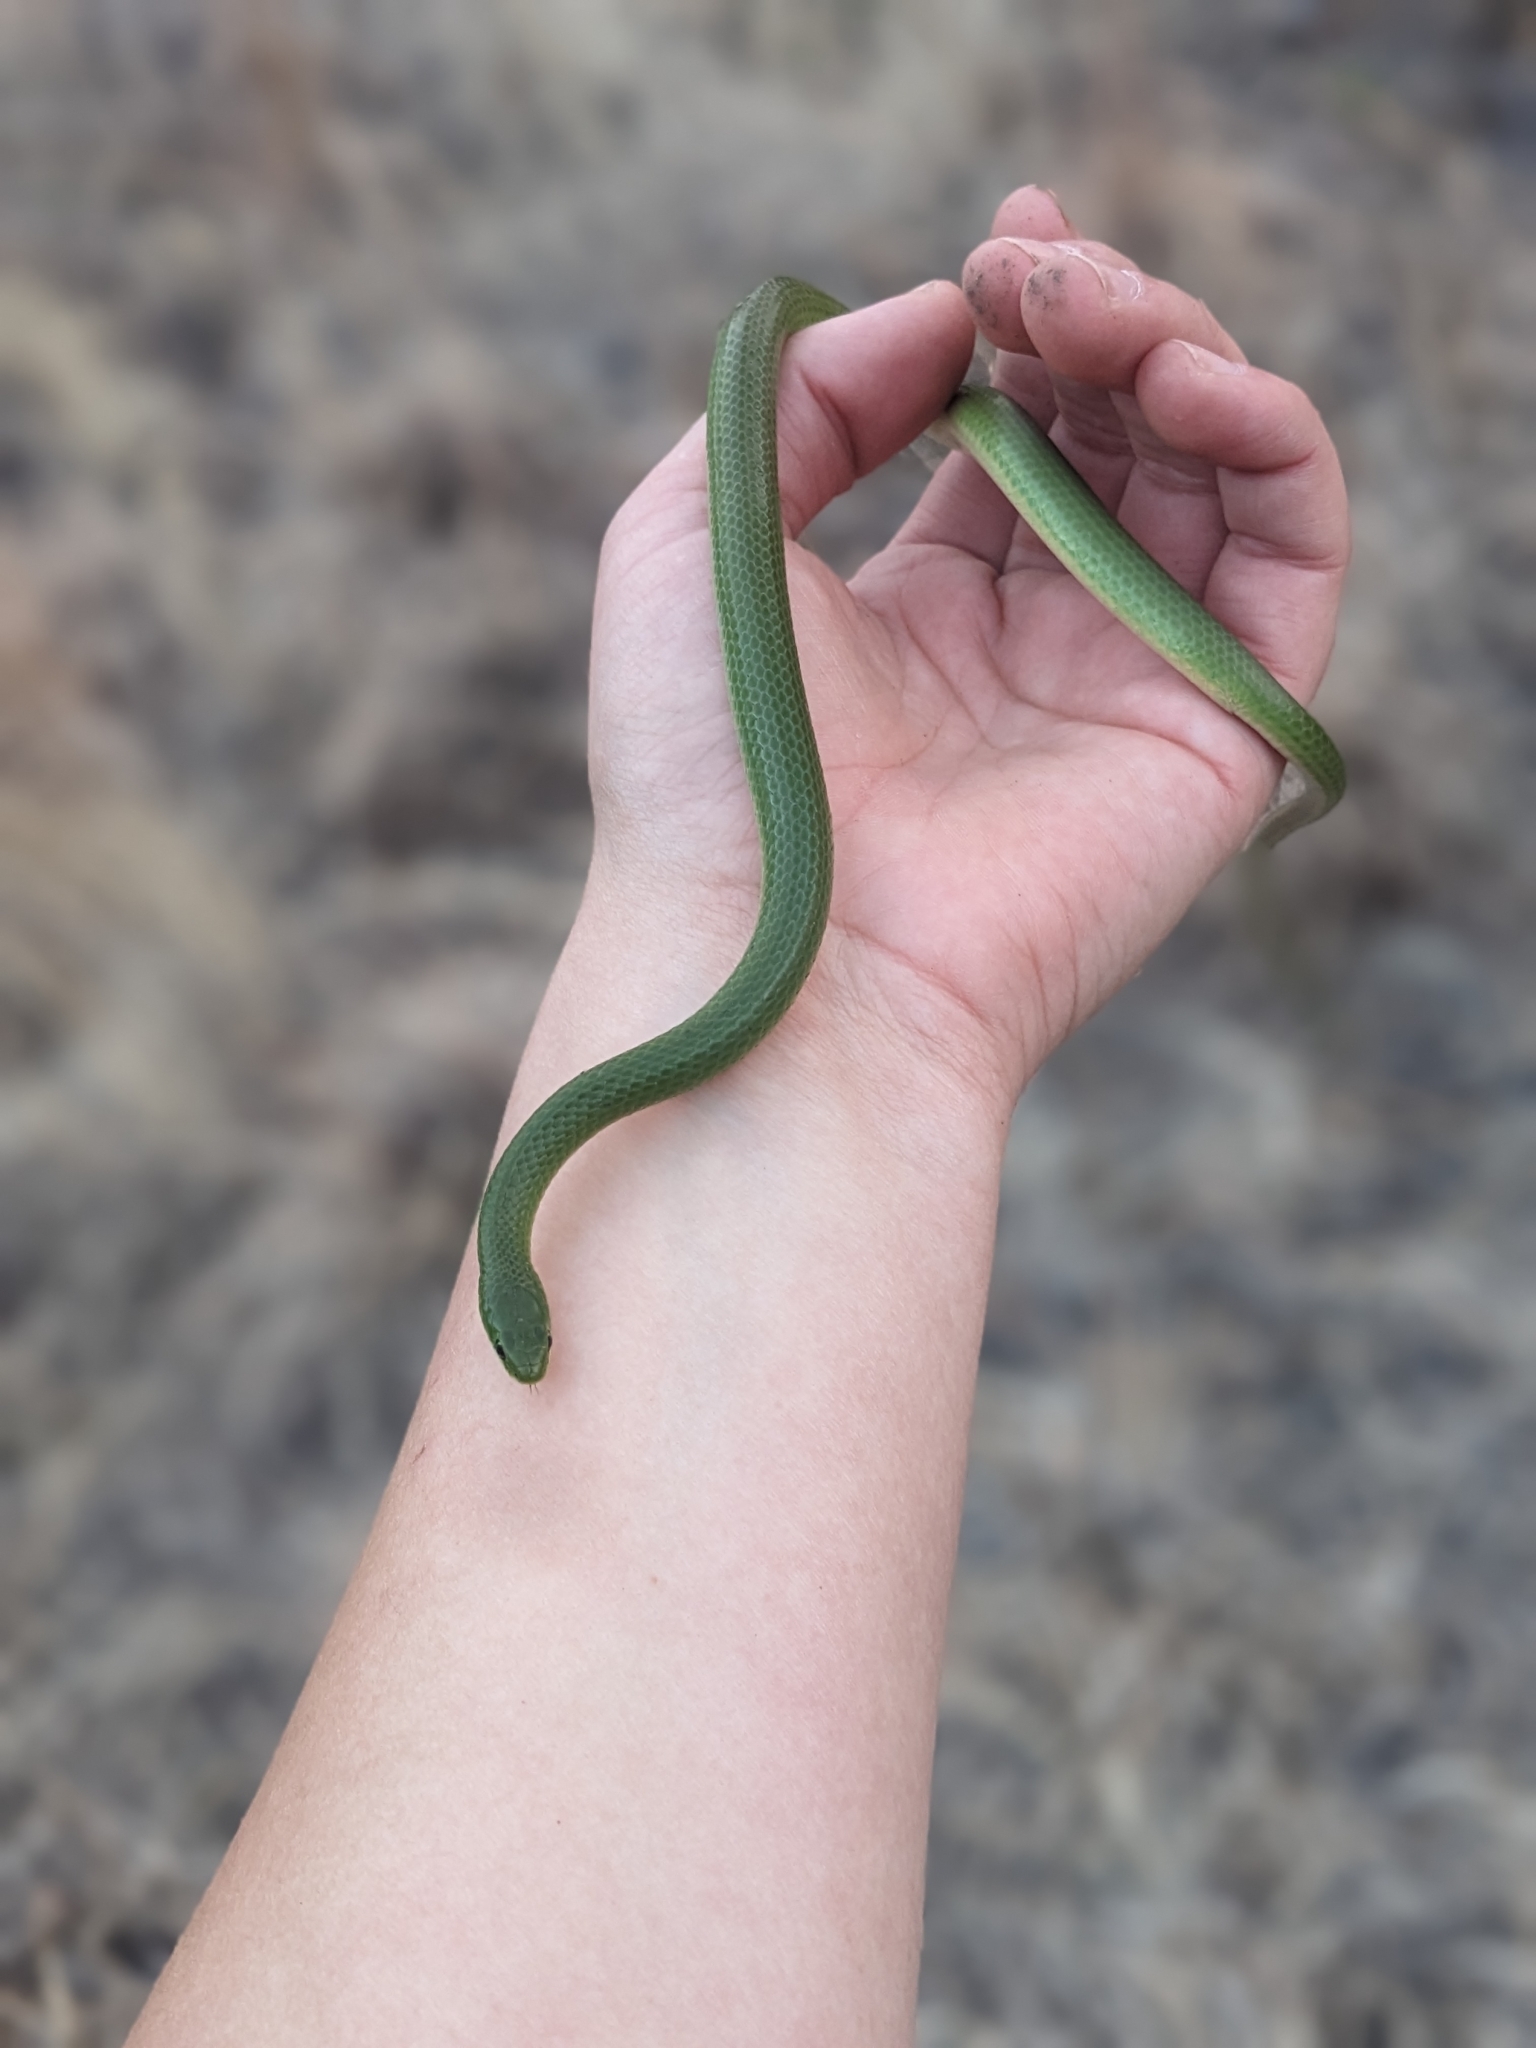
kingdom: Animalia
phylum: Chordata
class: Squamata
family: Colubridae
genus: Opheodrys
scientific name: Opheodrys vernalis
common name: Smooth green snake
